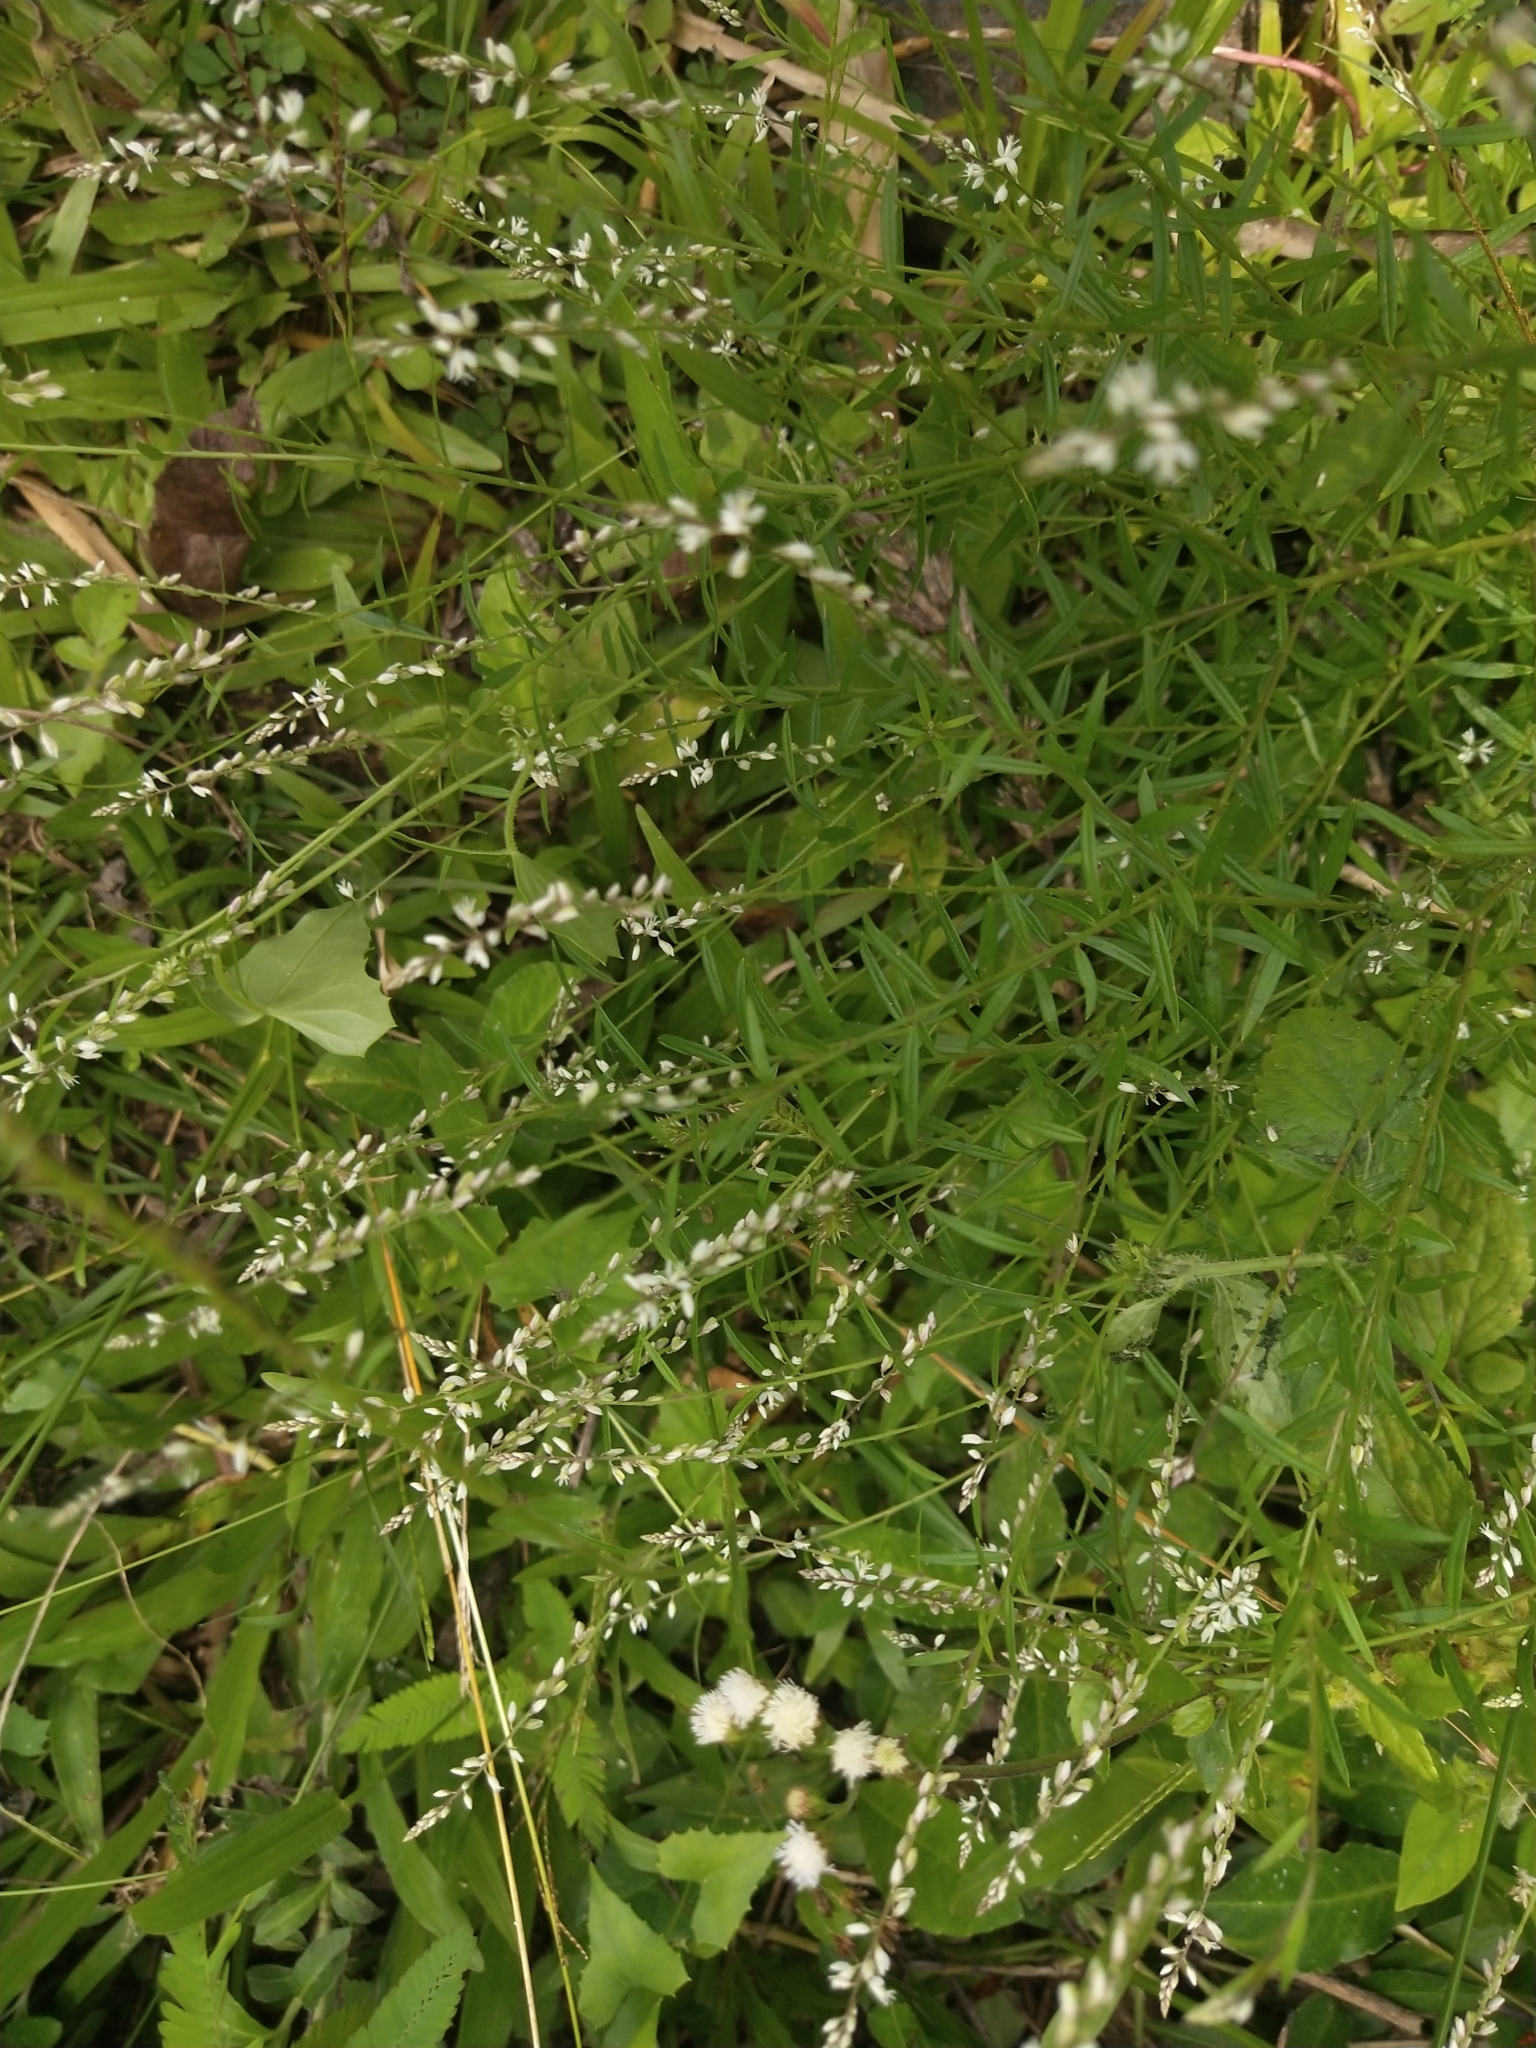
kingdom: Plantae
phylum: Tracheophyta
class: Magnoliopsida
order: Fabales
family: Polygalaceae
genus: Polygala
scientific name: Polygala paniculata
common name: Orosne
